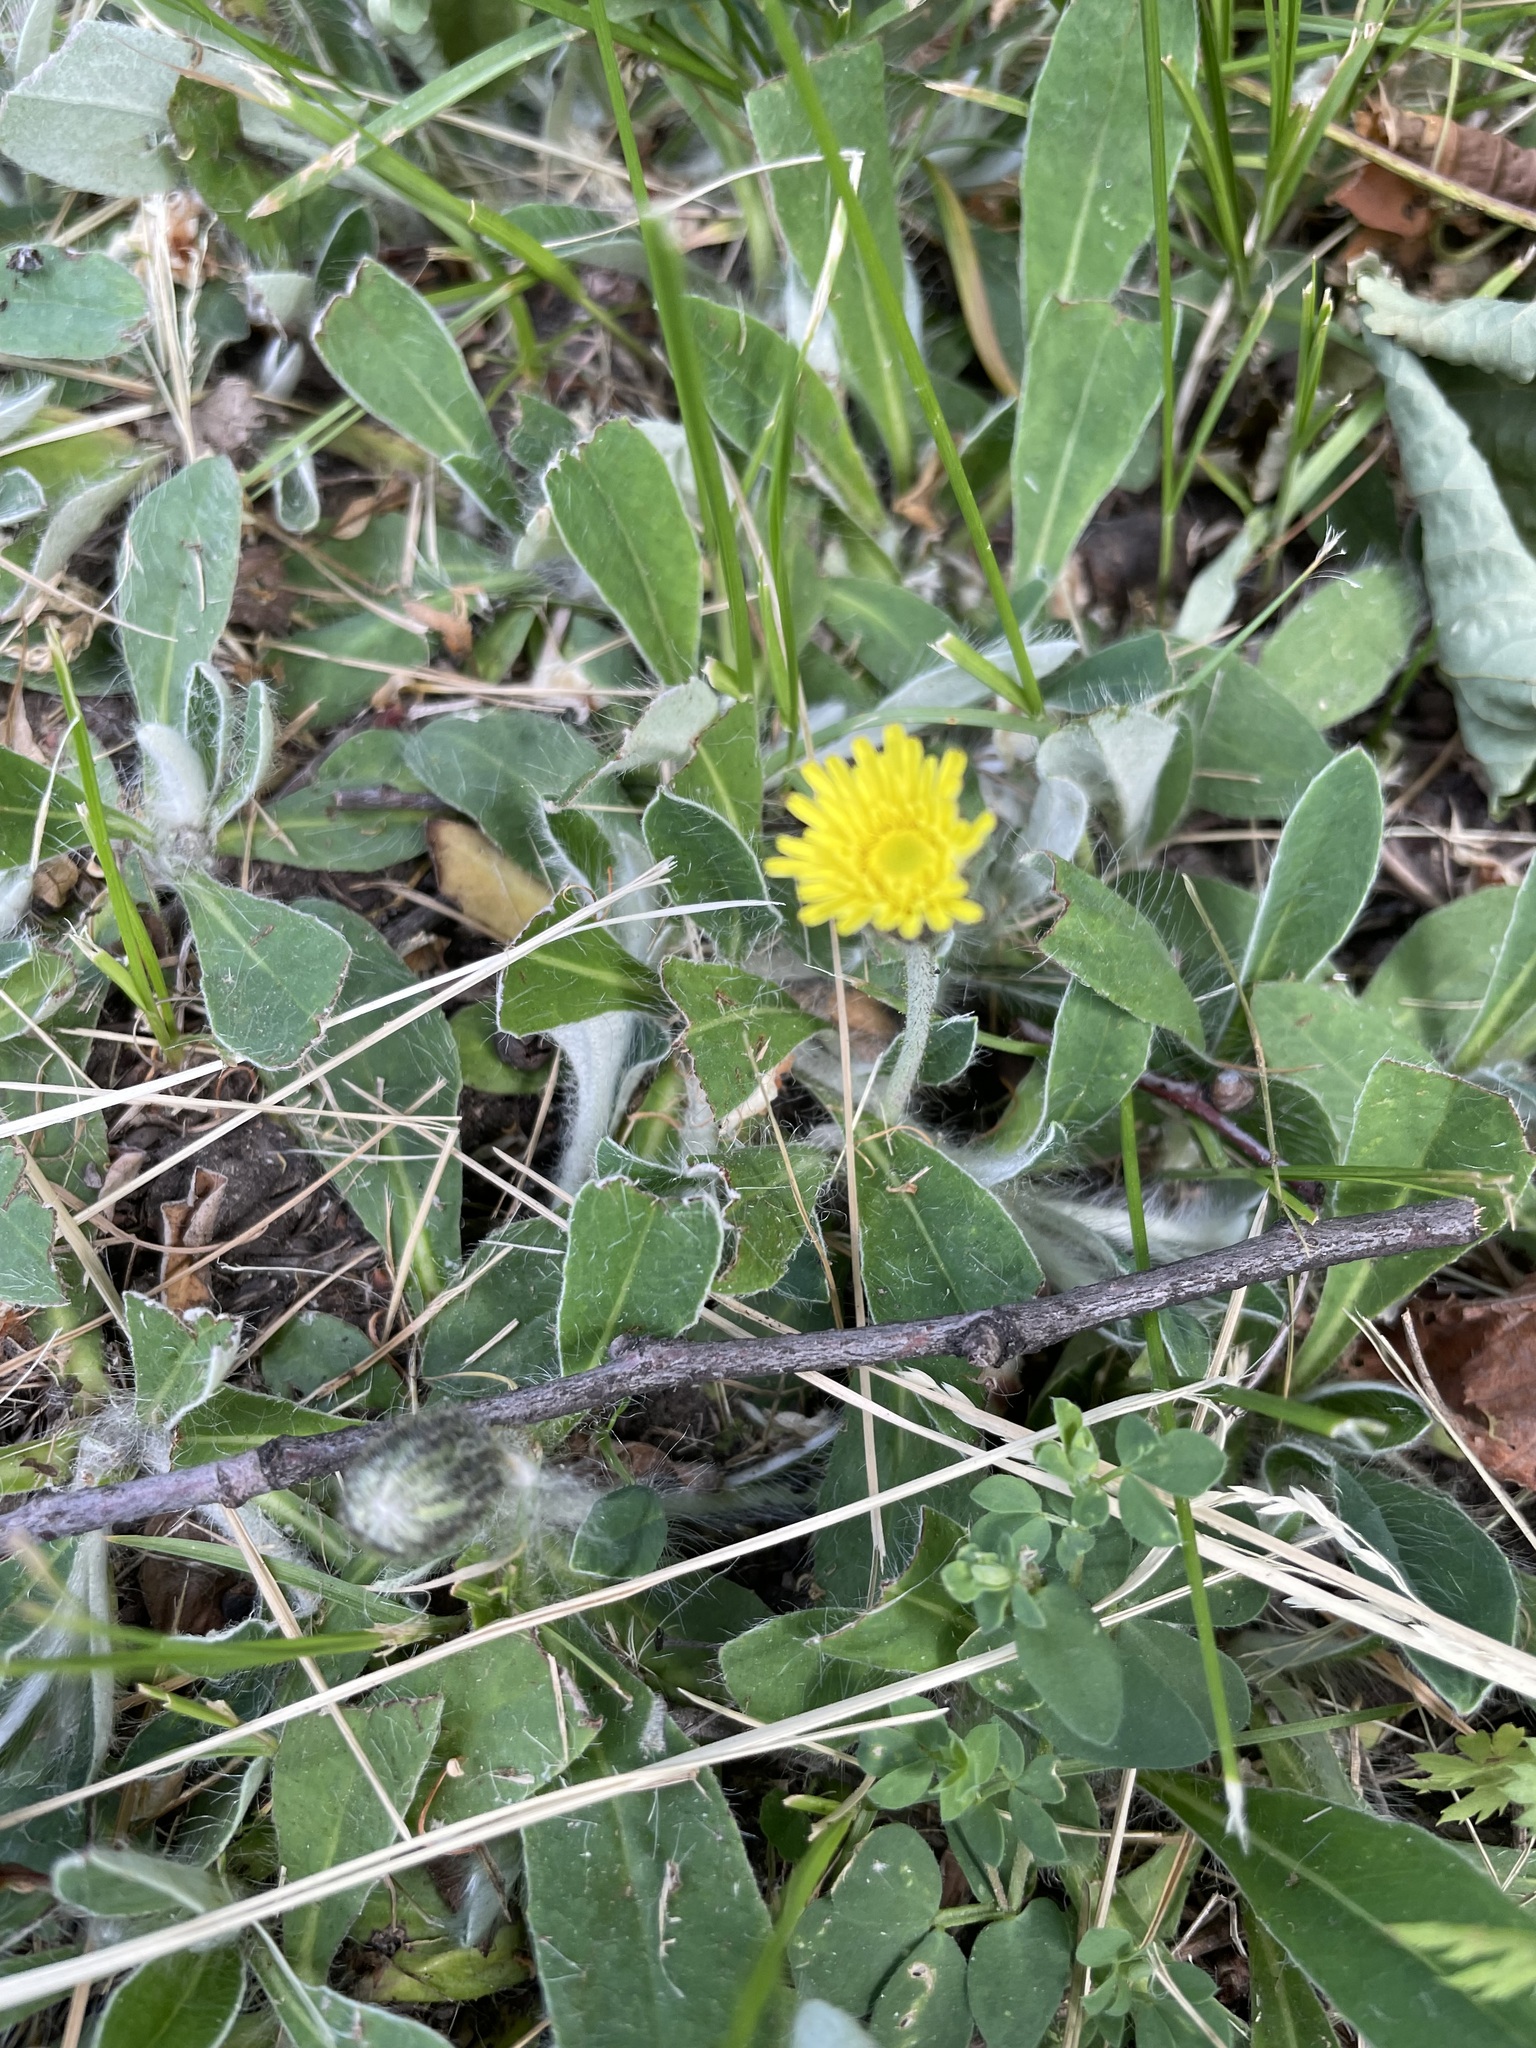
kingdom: Plantae
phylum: Tracheophyta
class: Magnoliopsida
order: Asterales
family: Asteraceae
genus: Pilosella
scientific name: Pilosella officinarum
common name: Mouse-ear hawkweed
